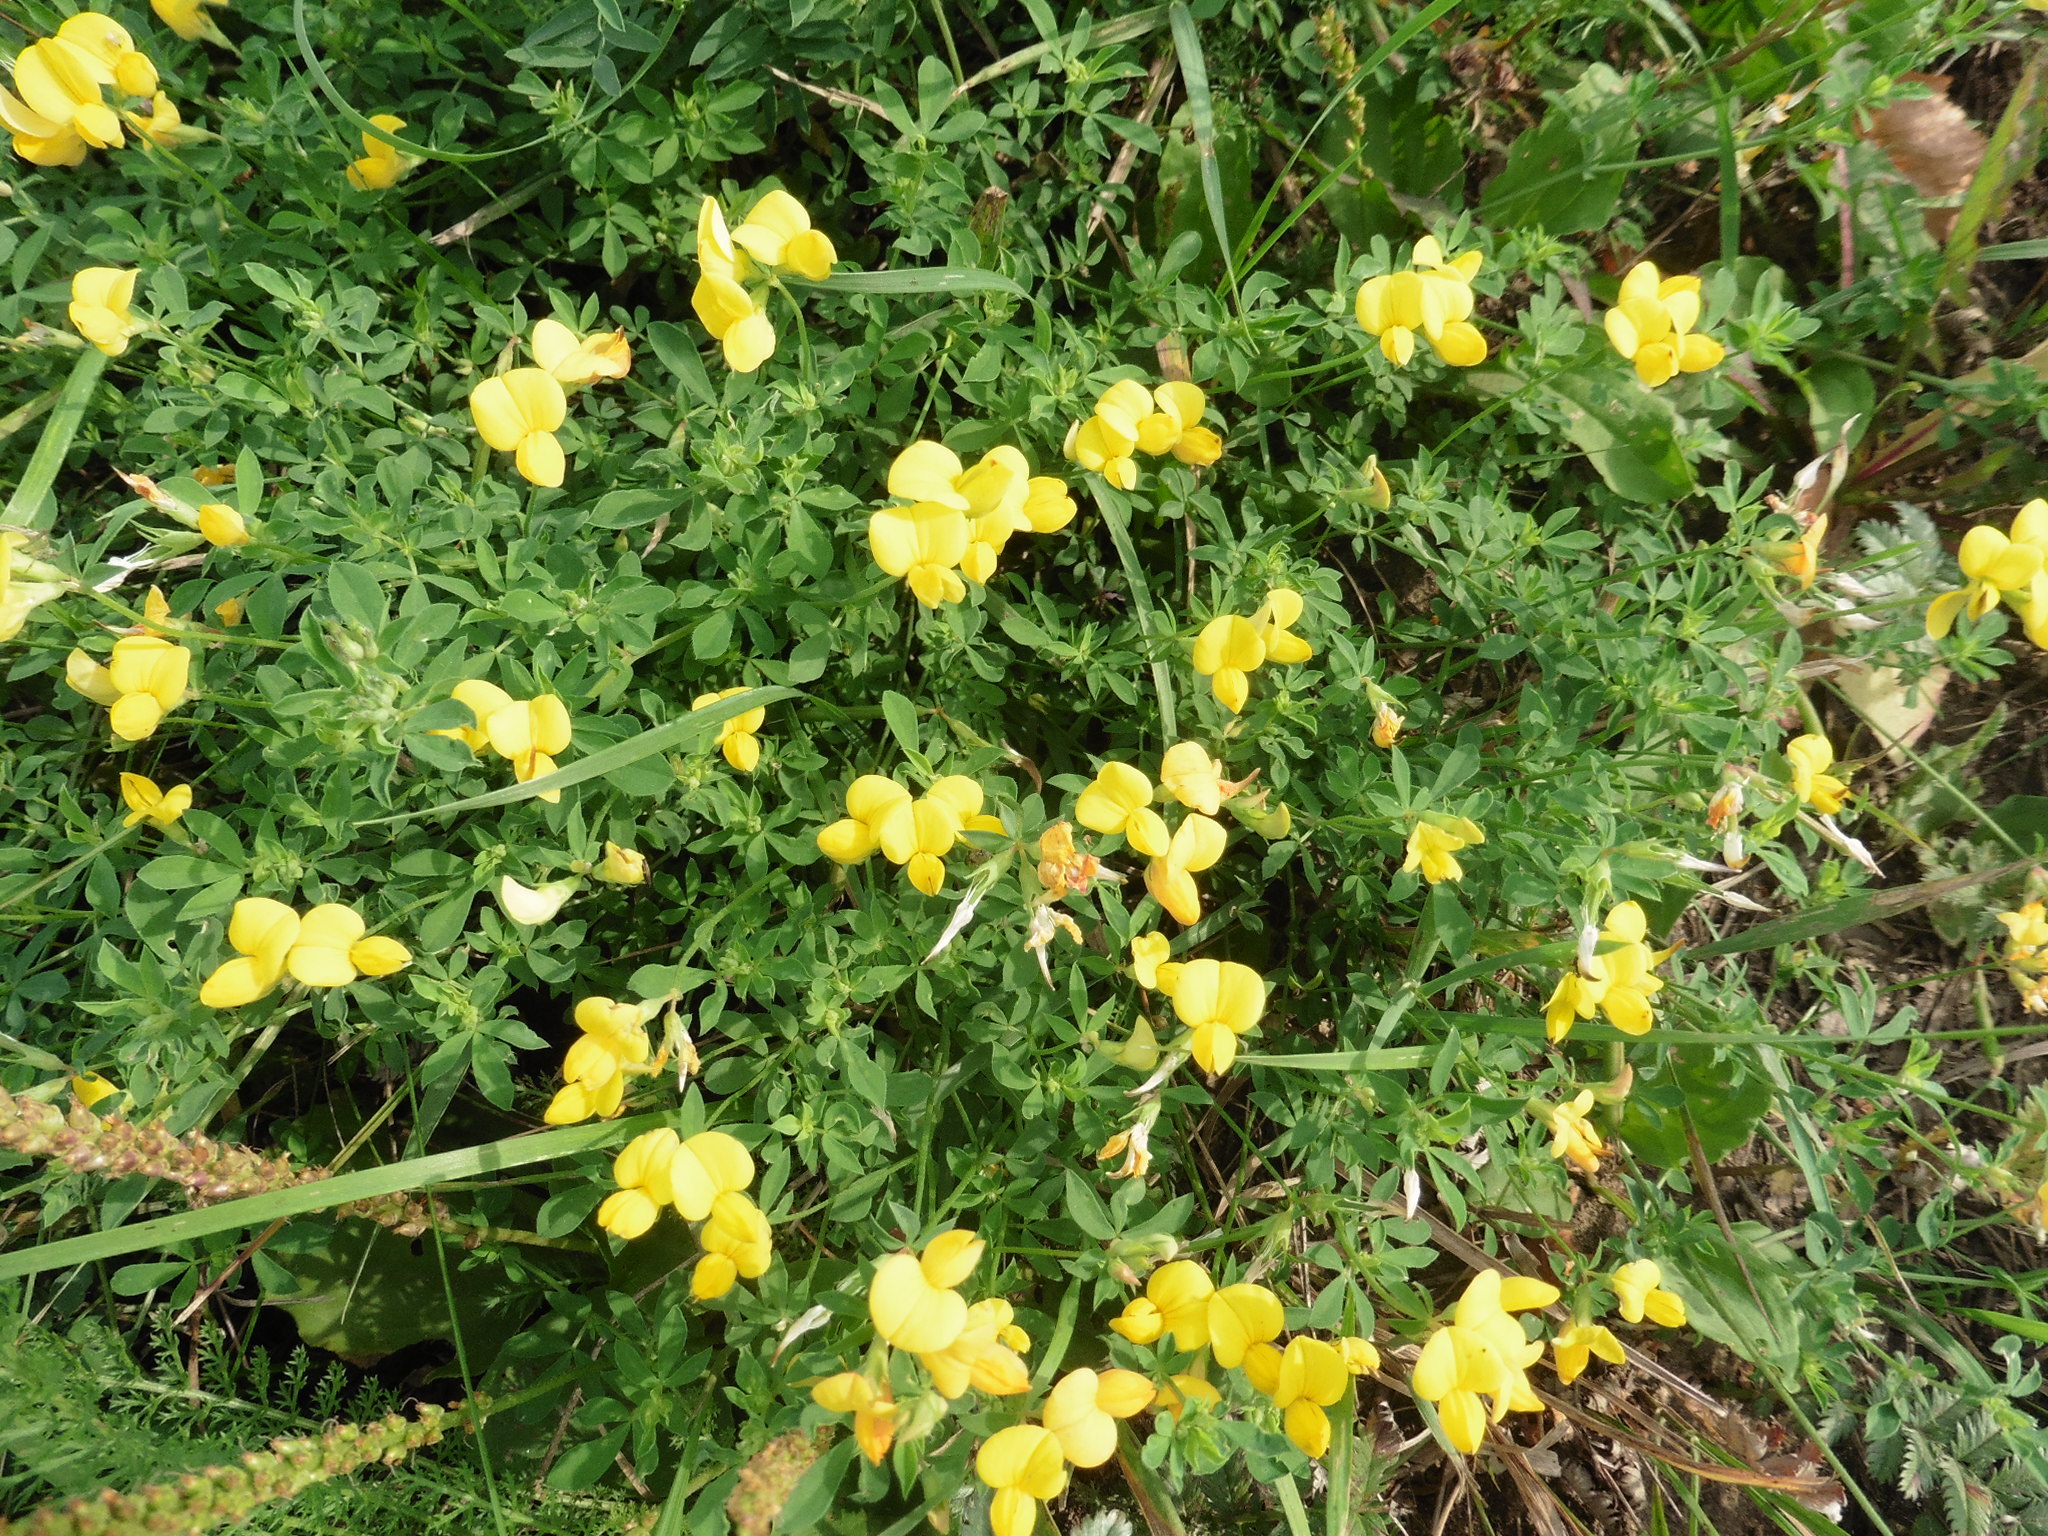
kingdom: Plantae
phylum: Tracheophyta
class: Magnoliopsida
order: Fabales
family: Fabaceae
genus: Lotus
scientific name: Lotus corniculatus
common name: Common bird's-foot-trefoil
